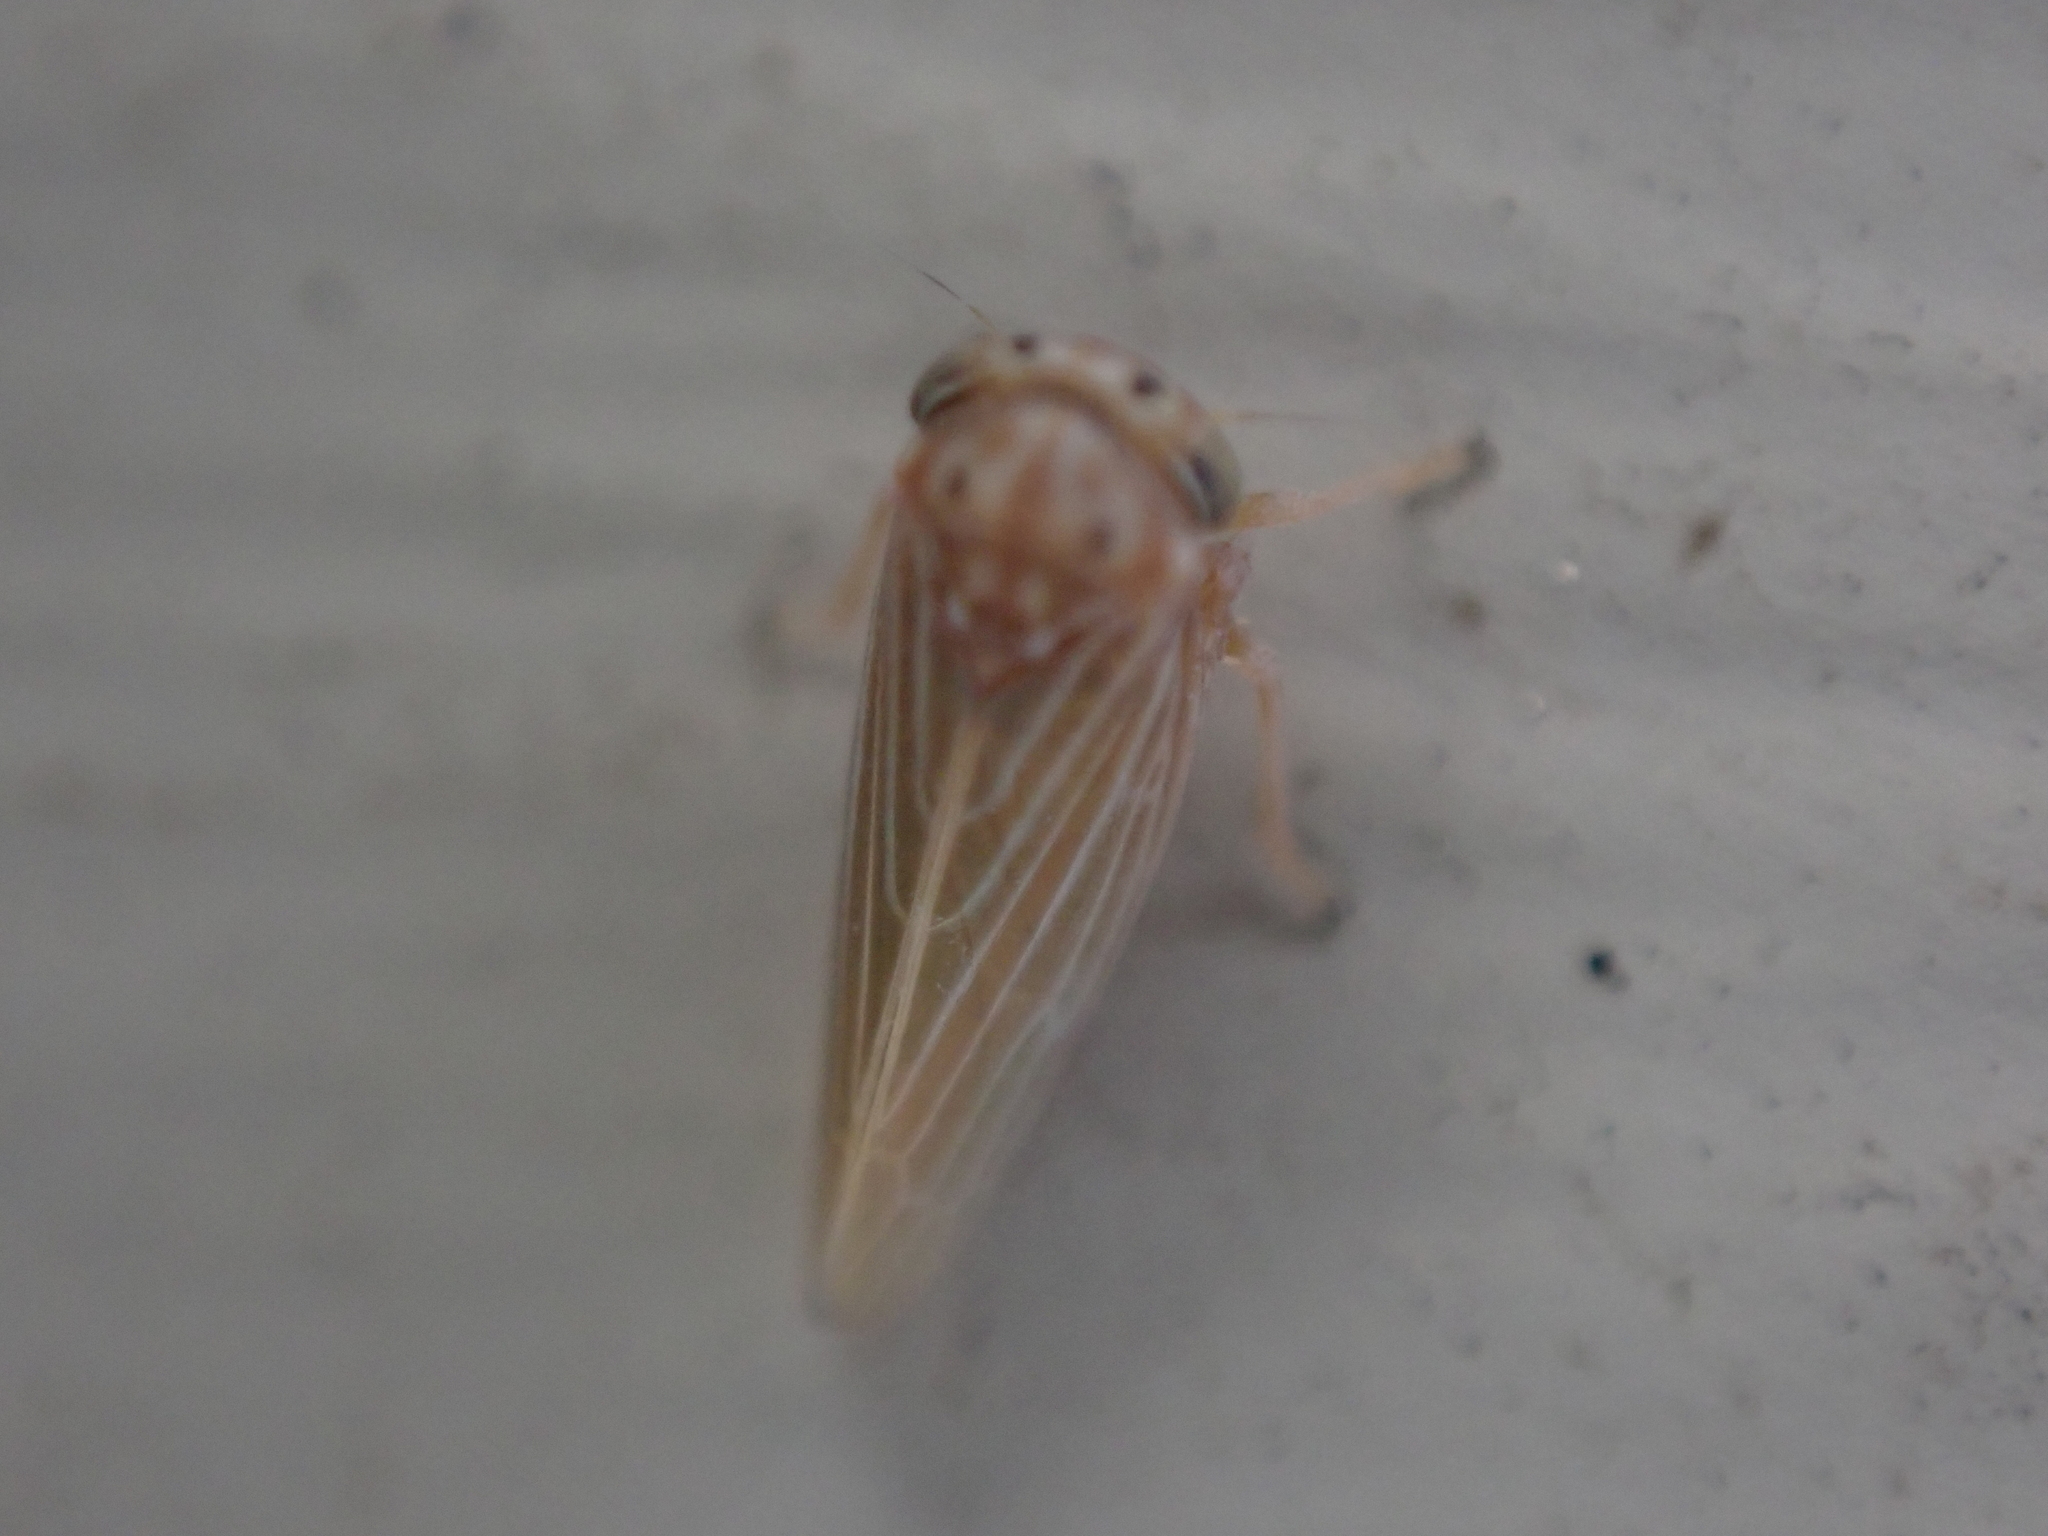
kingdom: Animalia
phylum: Arthropoda
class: Insecta
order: Hemiptera
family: Cicadellidae
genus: Agallia
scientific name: Agallia constricta
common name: The constricted leafhopper
